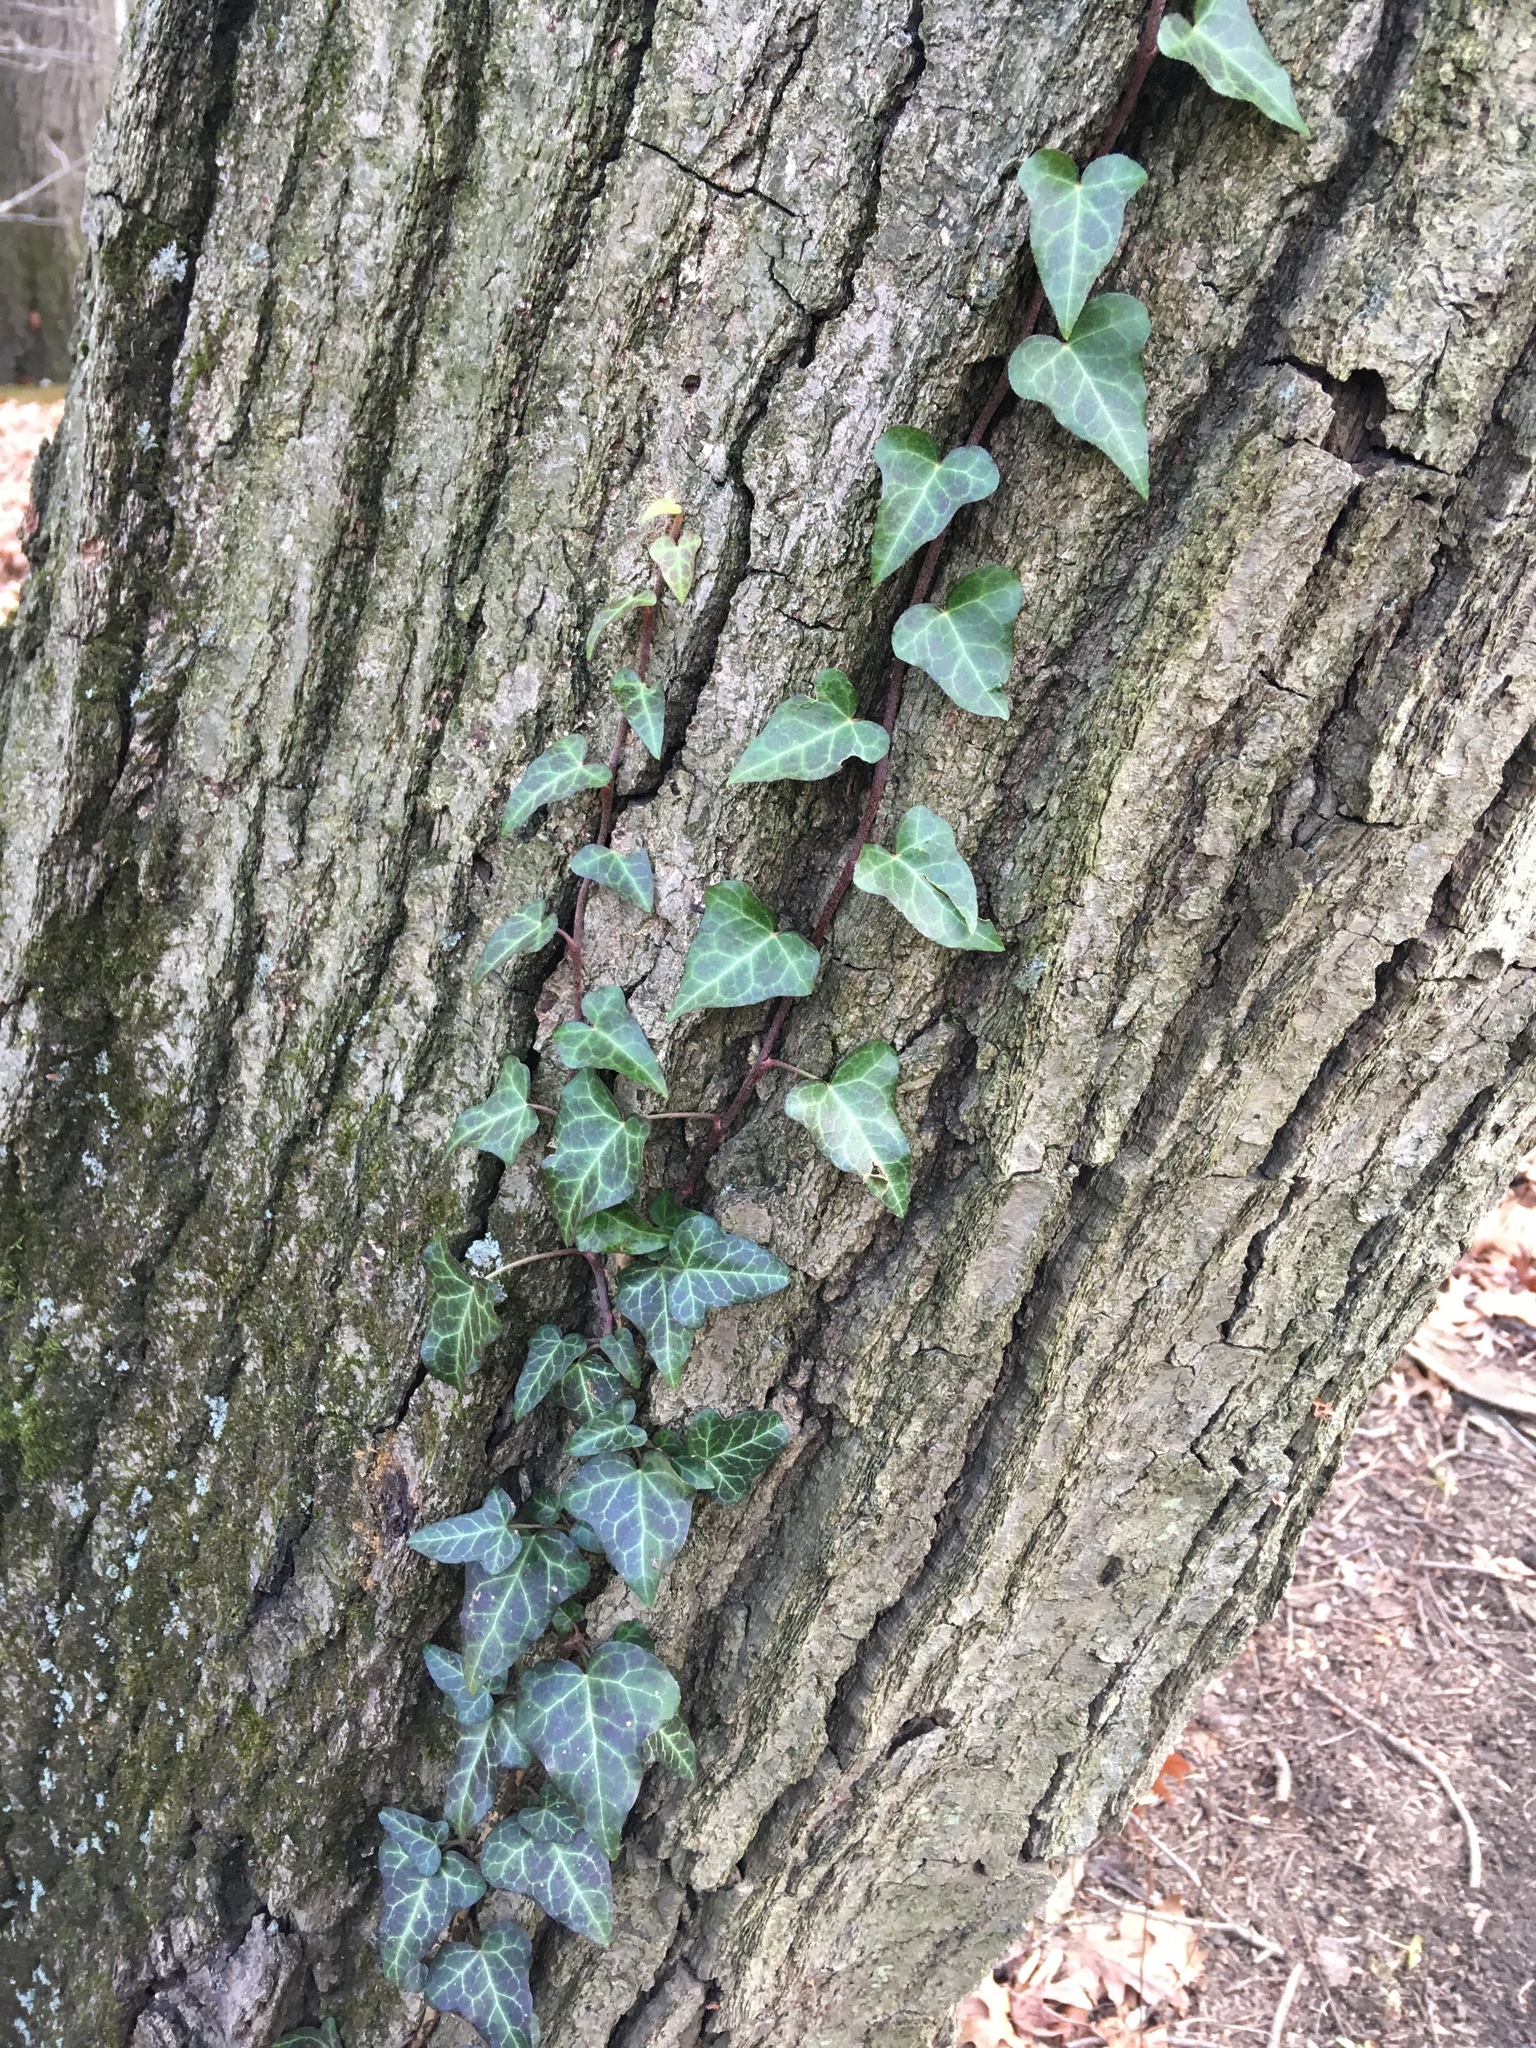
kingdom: Plantae
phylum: Tracheophyta
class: Magnoliopsida
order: Apiales
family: Araliaceae
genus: Hedera
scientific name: Hedera helix
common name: Ivy
